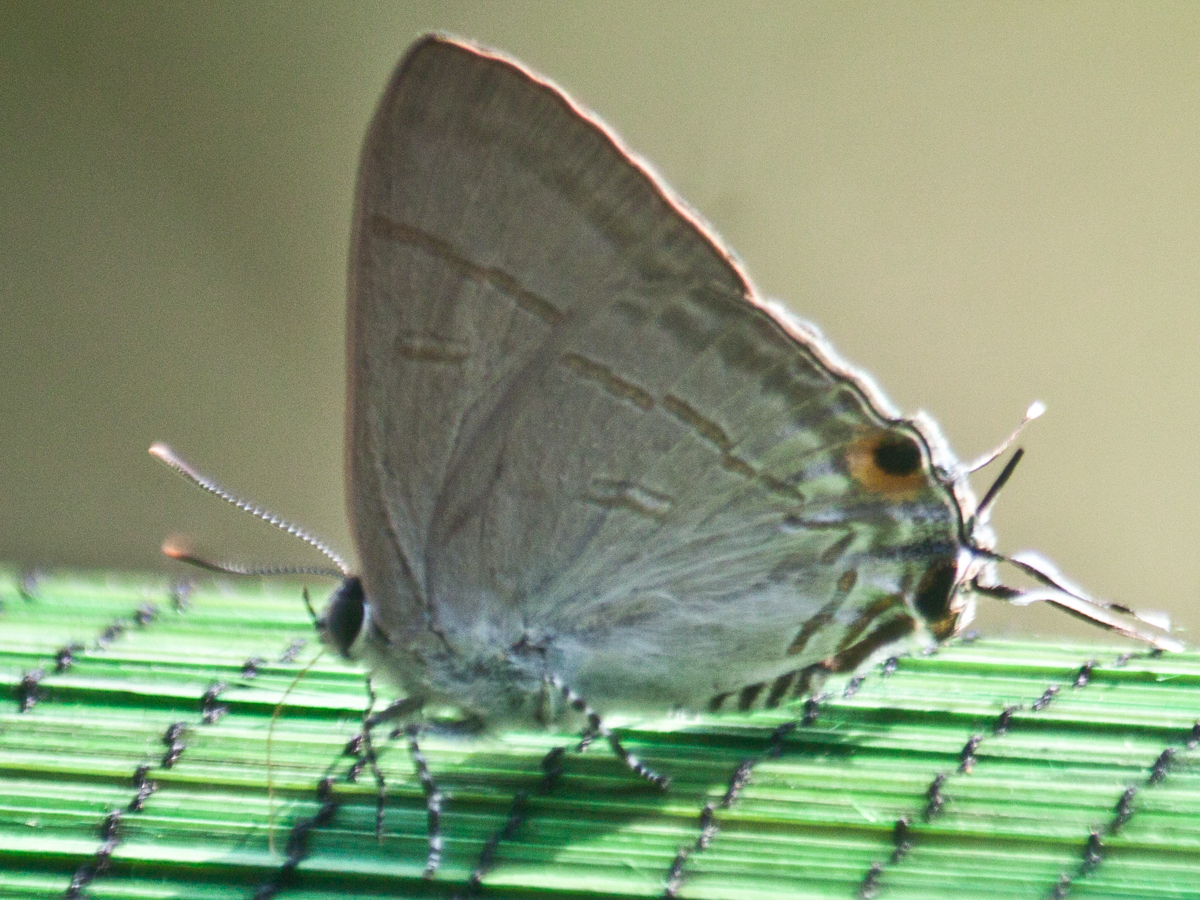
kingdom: Animalia
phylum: Arthropoda
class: Insecta
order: Lepidoptera
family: Lycaenidae
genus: Hypolycaena
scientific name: Hypolycaena erylus
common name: Common tit
